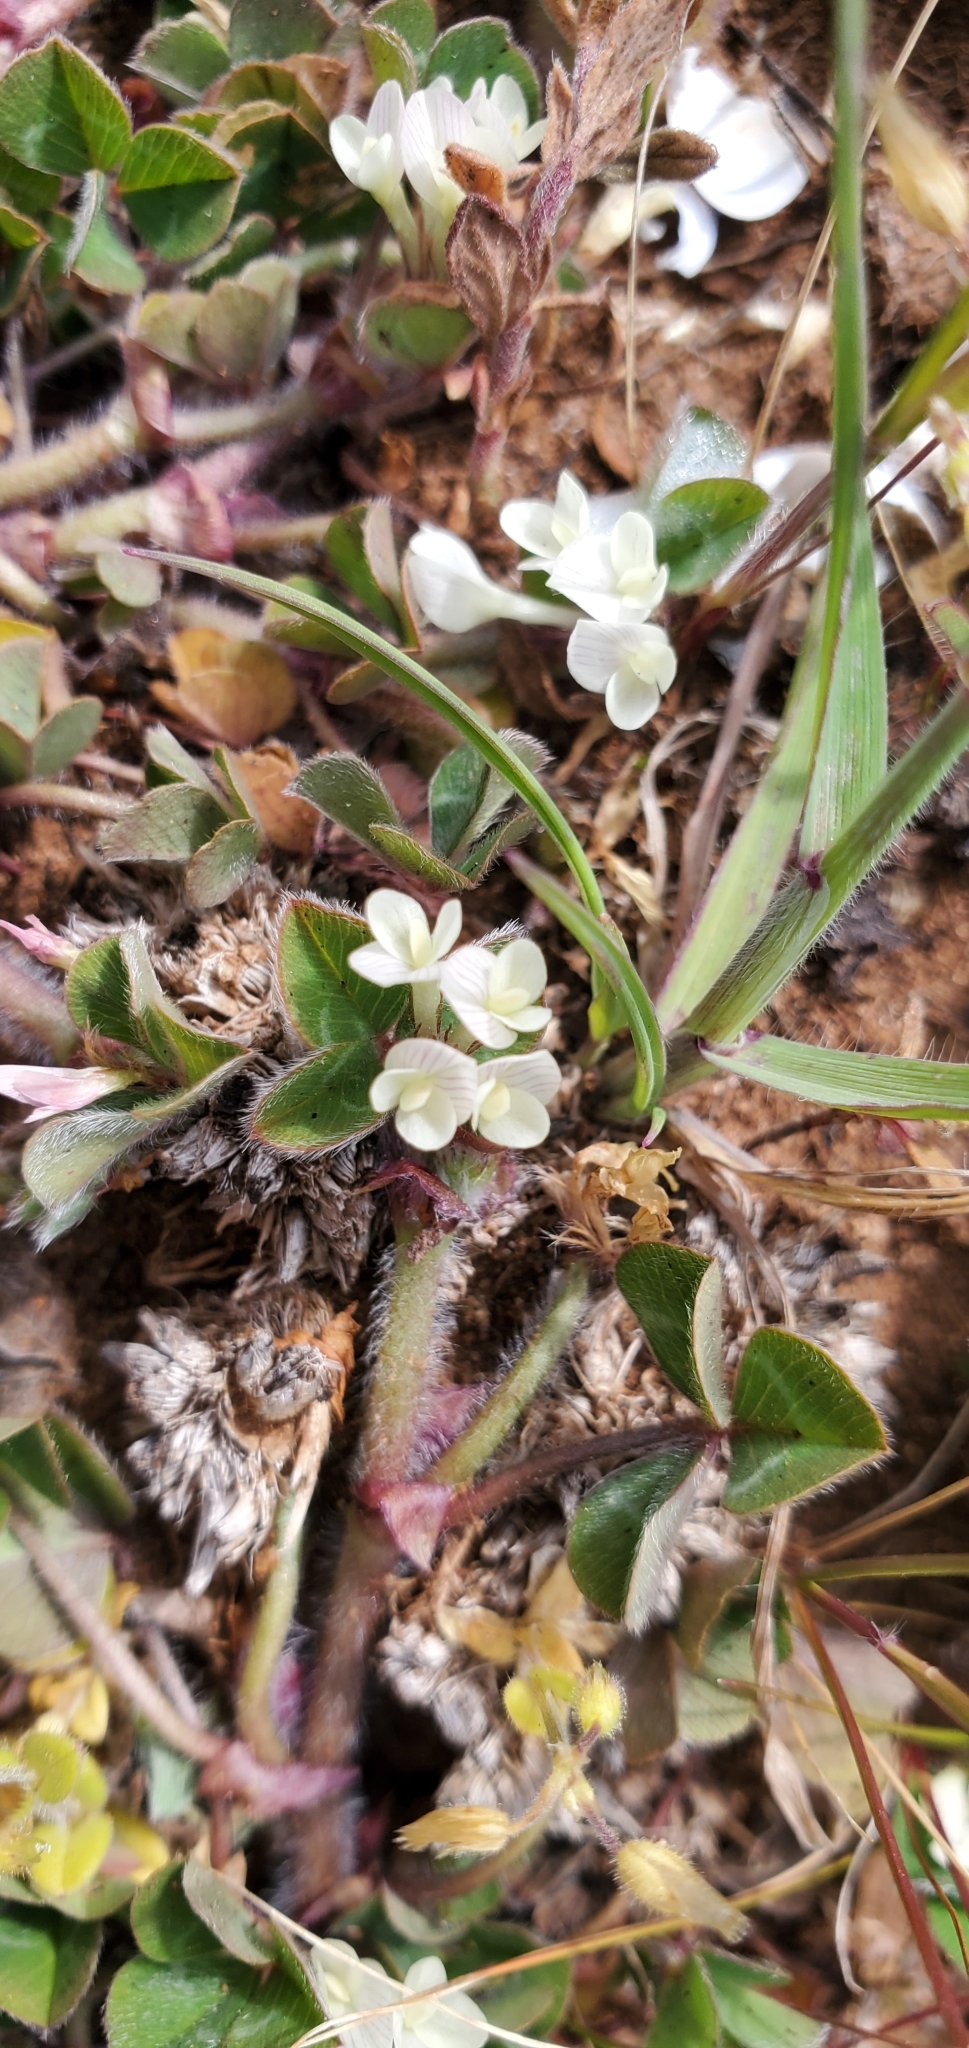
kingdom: Plantae
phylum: Tracheophyta
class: Magnoliopsida
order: Fabales
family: Fabaceae
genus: Trifolium
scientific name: Trifolium subterraneum
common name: Subterranean clover
